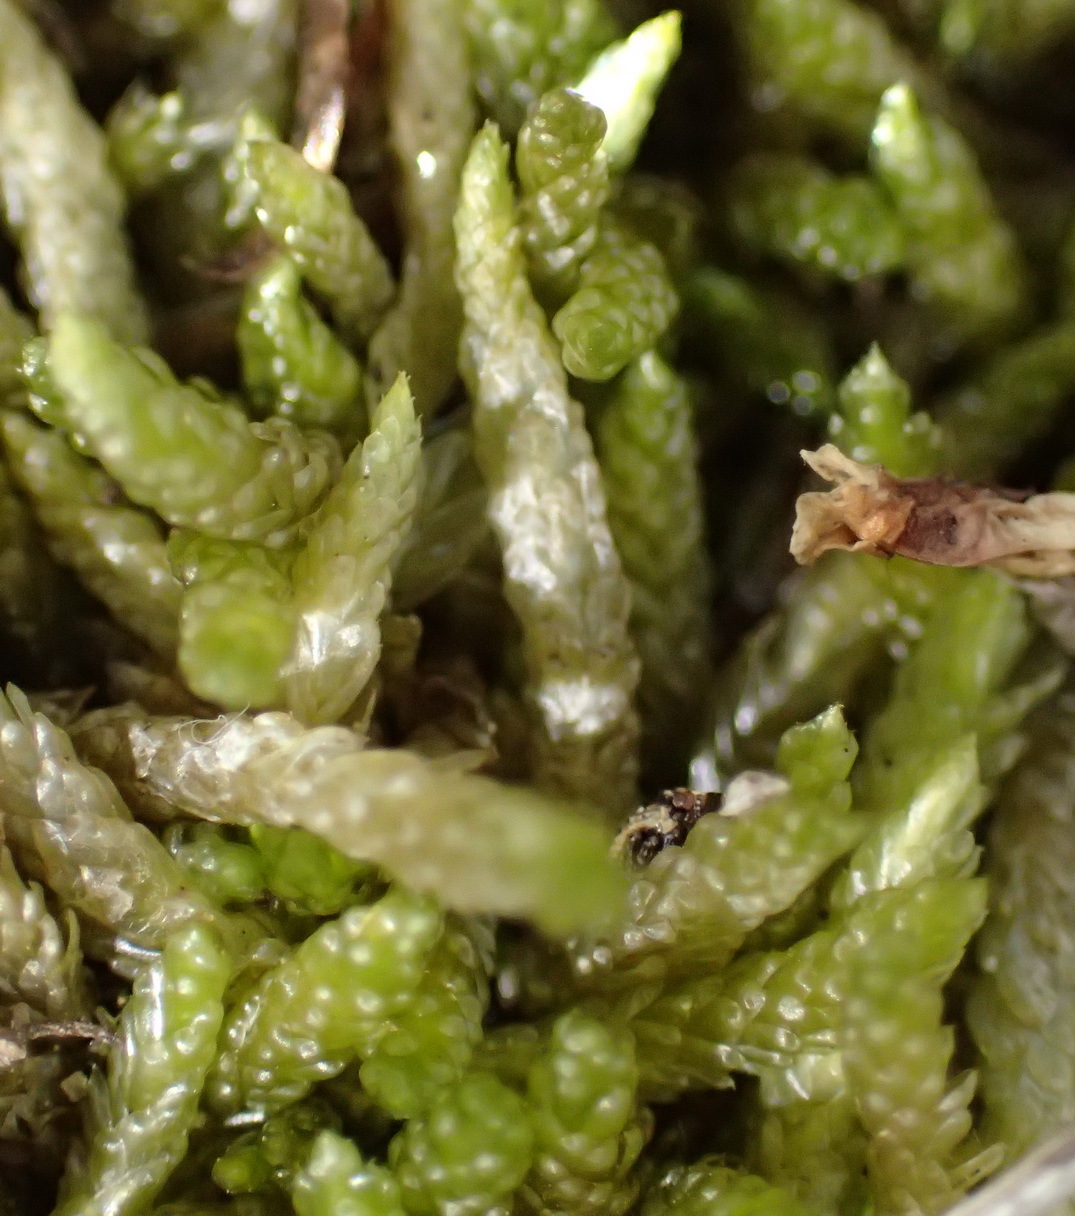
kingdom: Plantae
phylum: Bryophyta
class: Bryopsida
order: Hypnales
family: Catagoniaceae
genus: Catagonium
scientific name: Catagonium nitens
